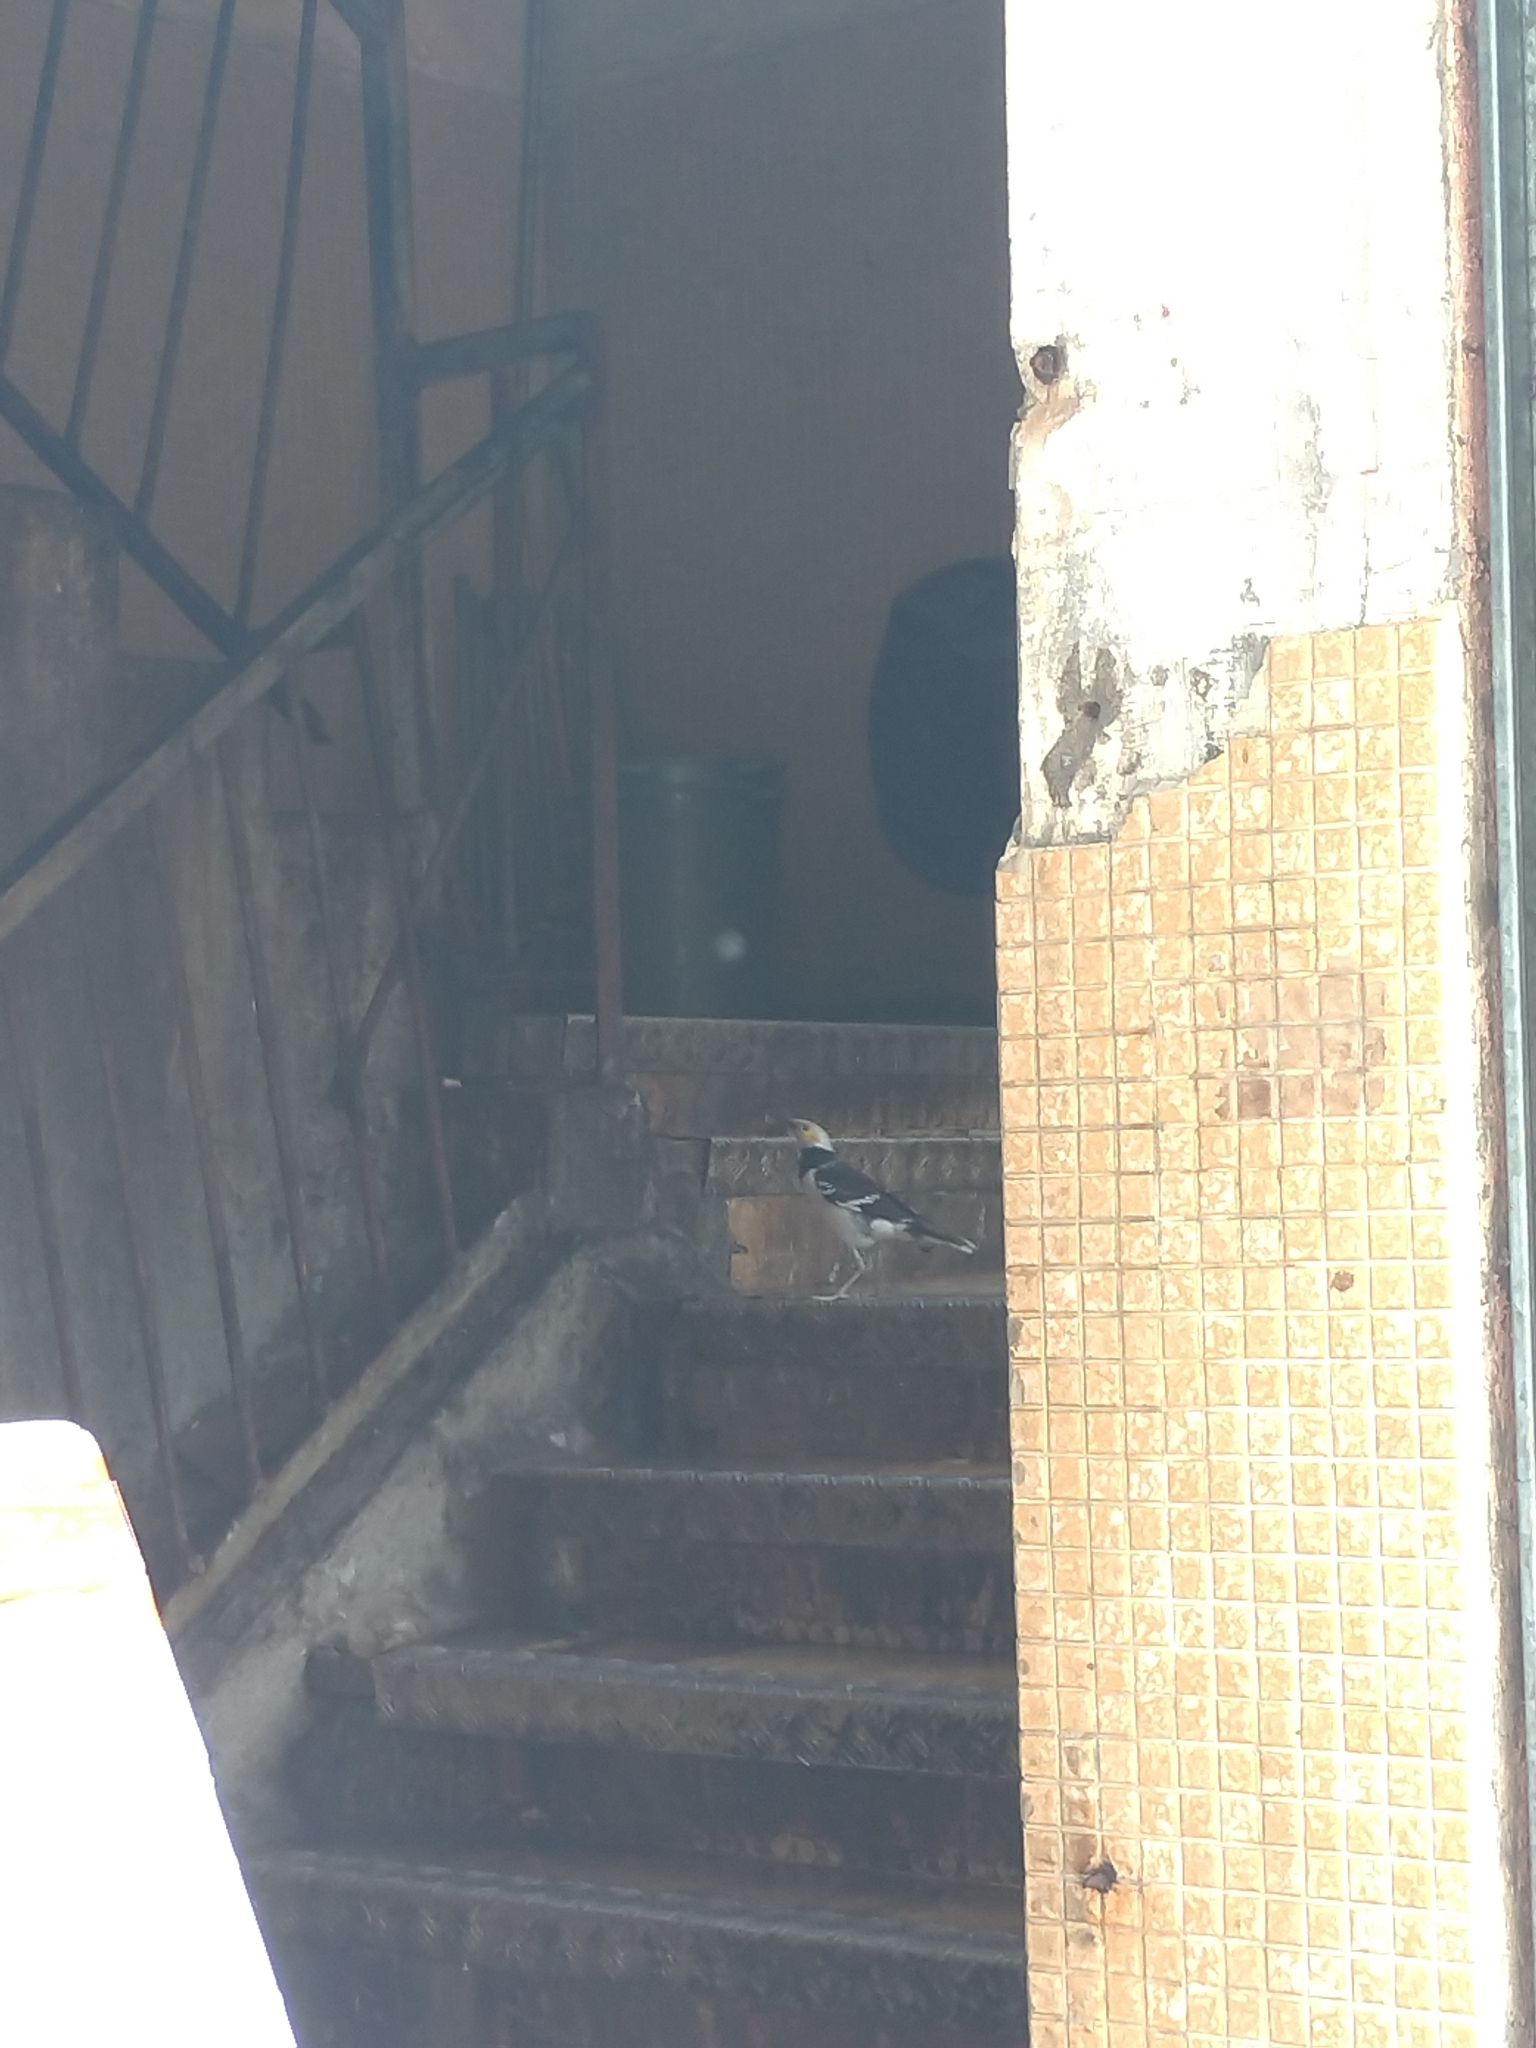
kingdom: Animalia
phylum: Chordata
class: Aves
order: Passeriformes
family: Sturnidae
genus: Gracupica
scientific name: Gracupica nigricollis
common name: Black-collared starling
